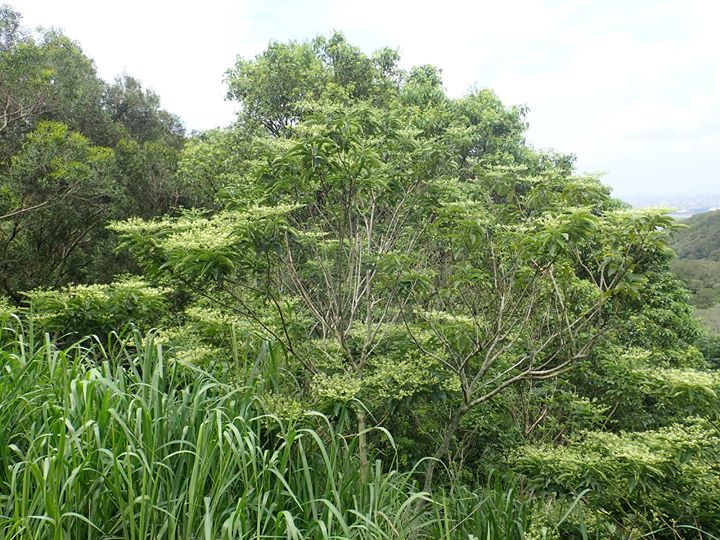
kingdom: Plantae
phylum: Tracheophyta
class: Magnoliopsida
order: Lamiales
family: Lamiaceae
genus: Clerodendrum
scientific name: Clerodendrum cyrtophyllum
